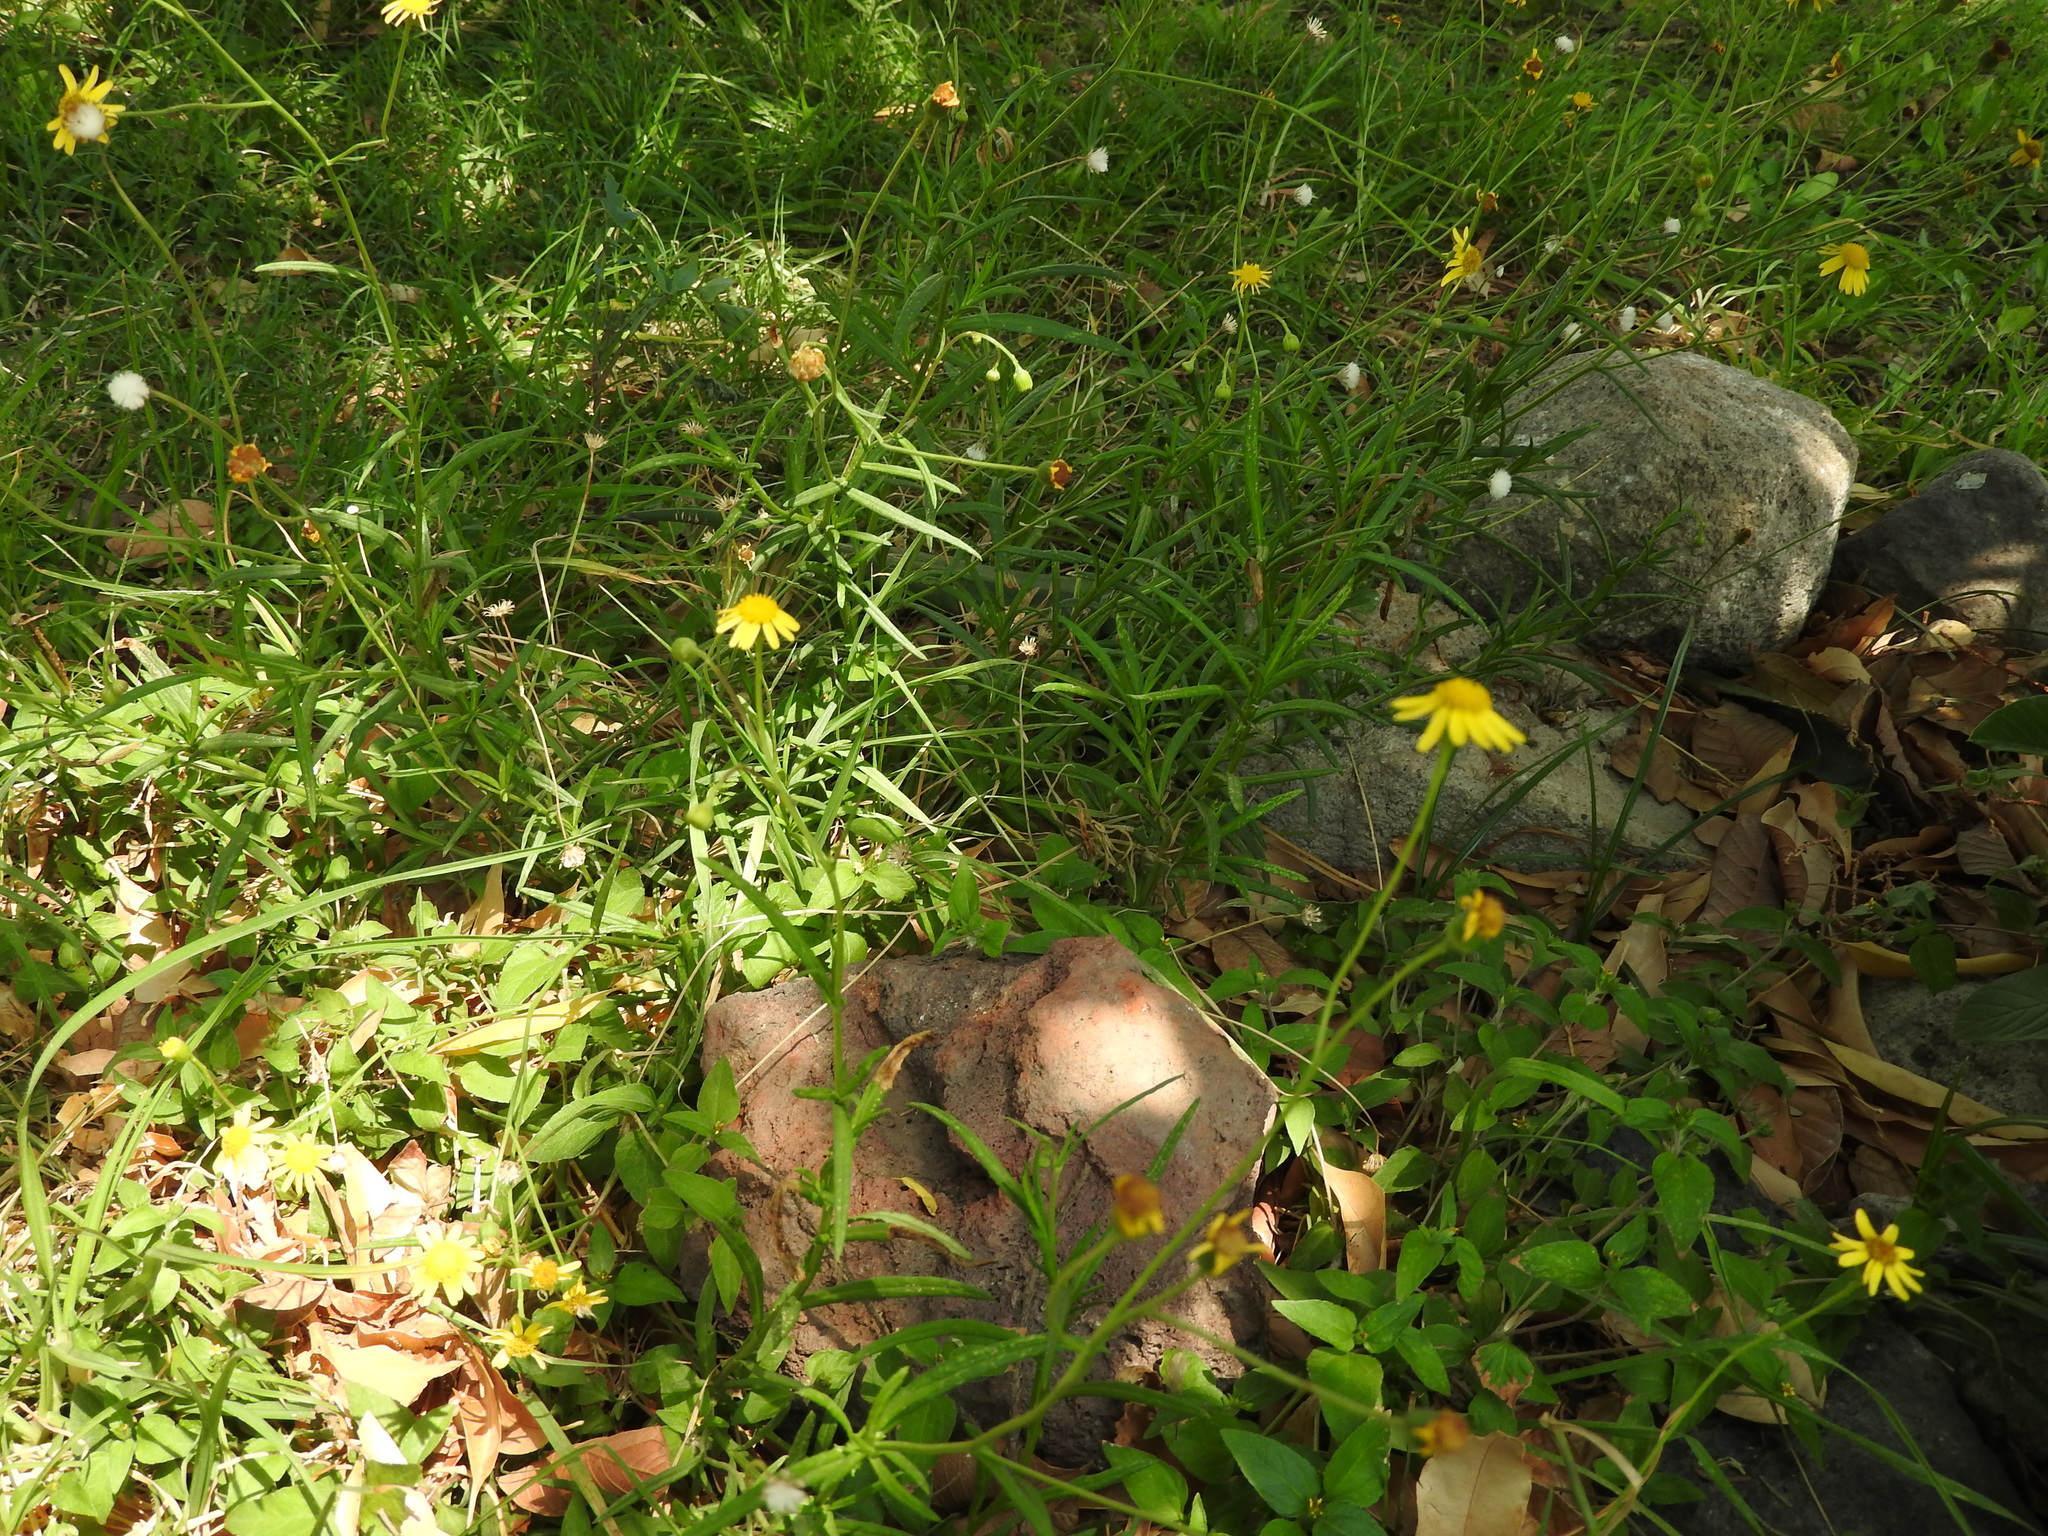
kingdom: Plantae
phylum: Tracheophyta
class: Magnoliopsida
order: Asterales
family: Asteraceae
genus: Senecio
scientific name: Senecio inaequidens
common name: Narrow-leaved ragwort
